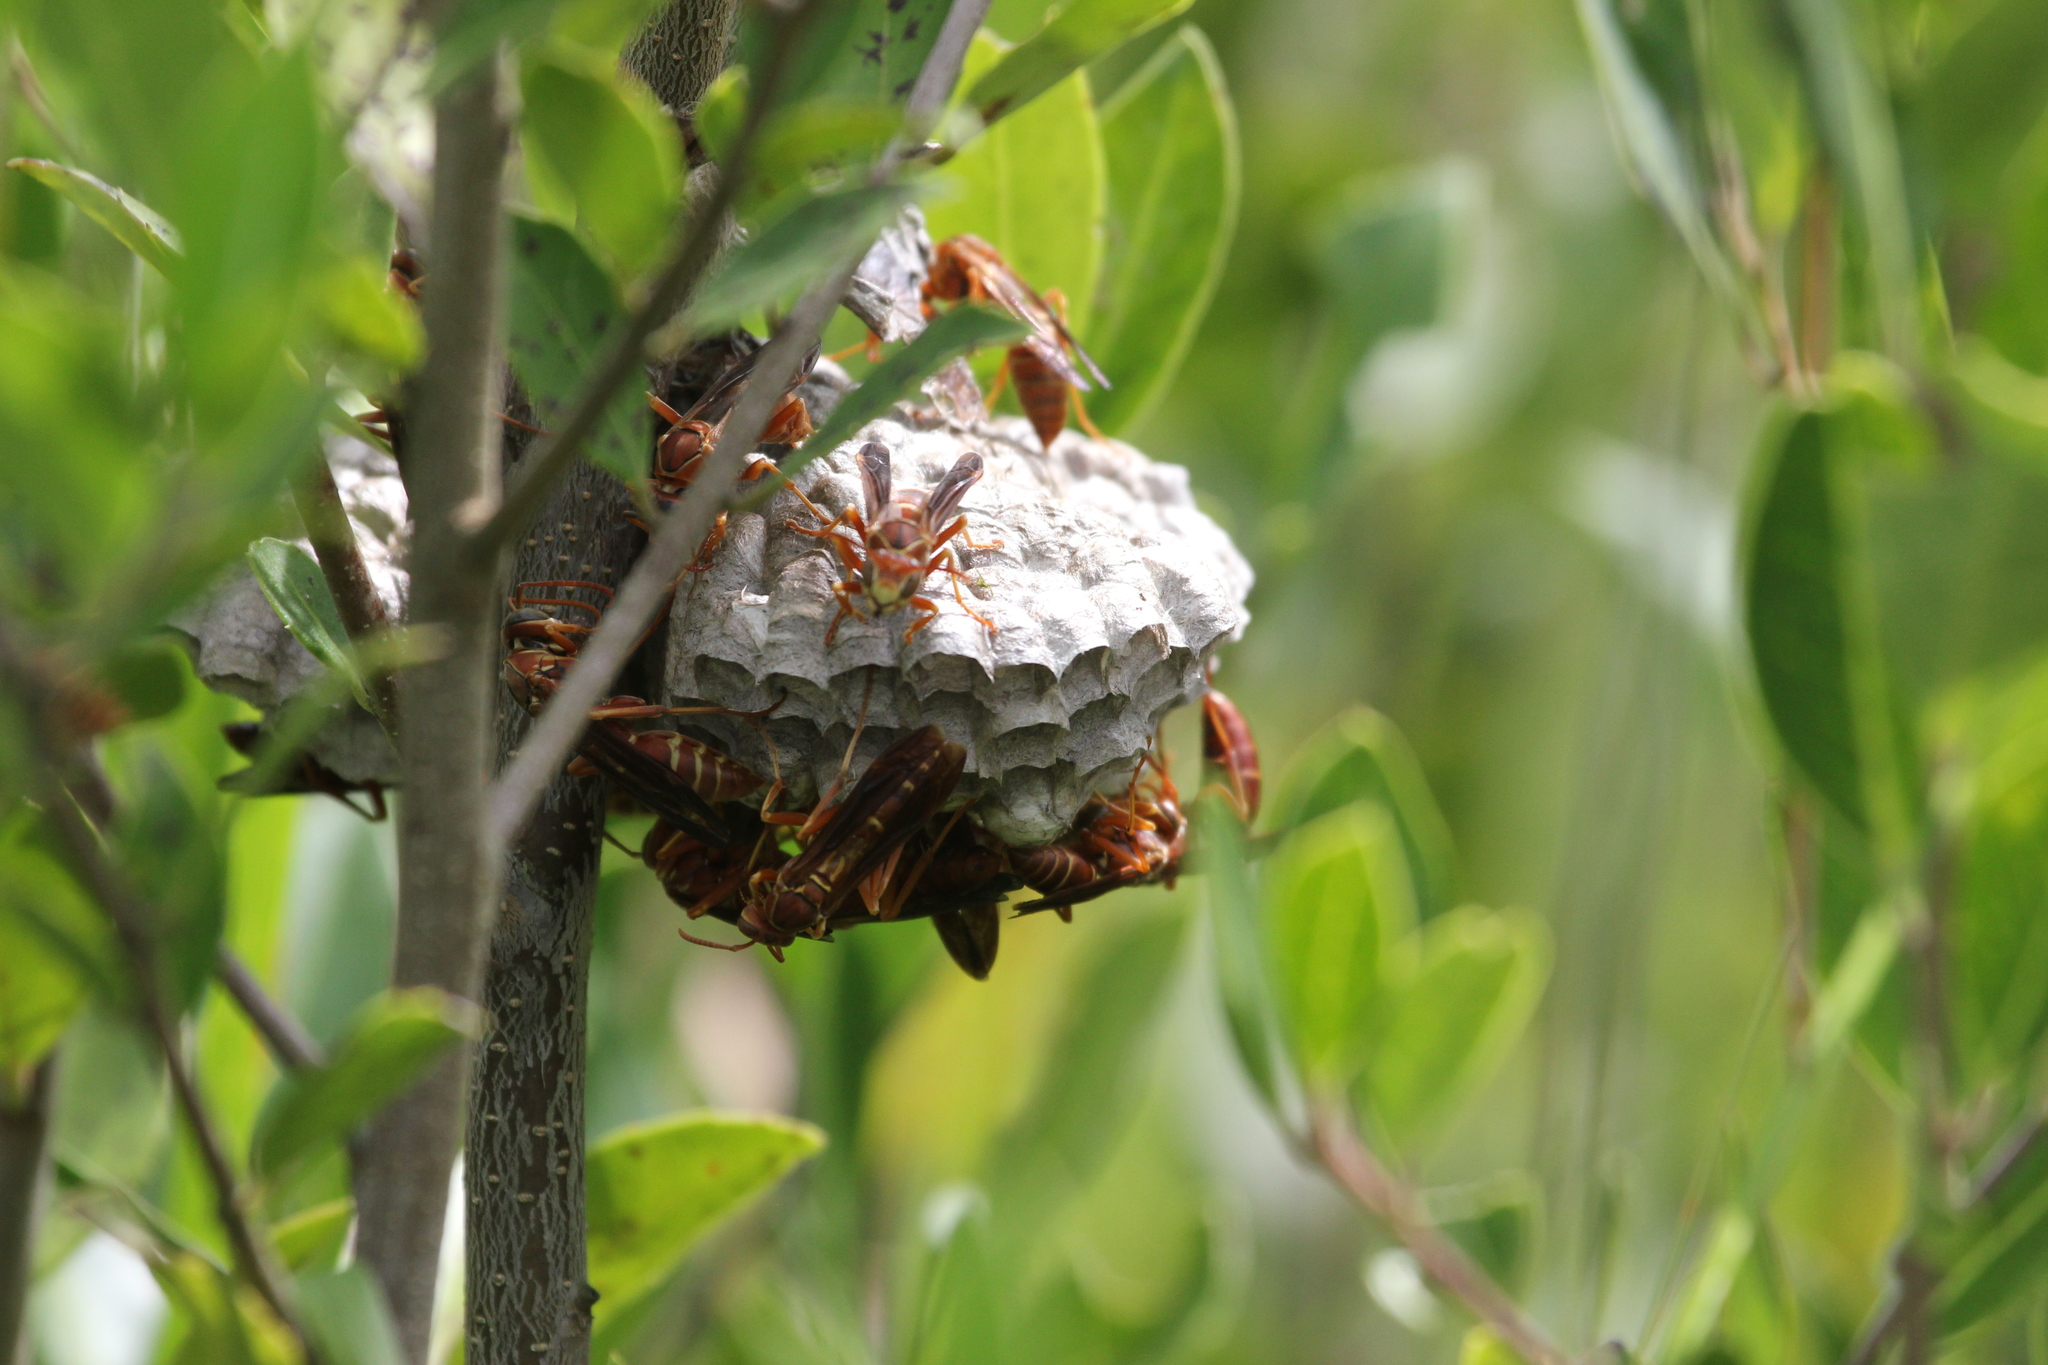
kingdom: Animalia
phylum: Arthropoda
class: Insecta
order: Hymenoptera
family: Eumenidae
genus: Polistes
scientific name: Polistes bellicosus
